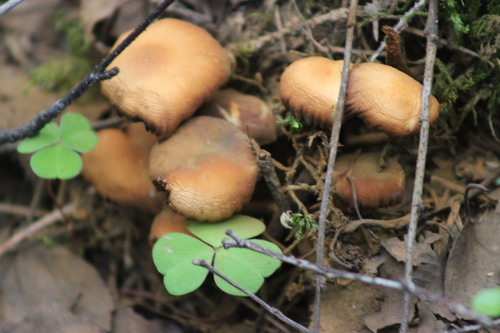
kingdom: Fungi
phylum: Basidiomycota
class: Agaricomycetes
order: Agaricales
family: Strophariaceae
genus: Kuehneromyces
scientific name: Kuehneromyces mutabilis
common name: Sheathed woodtuft
